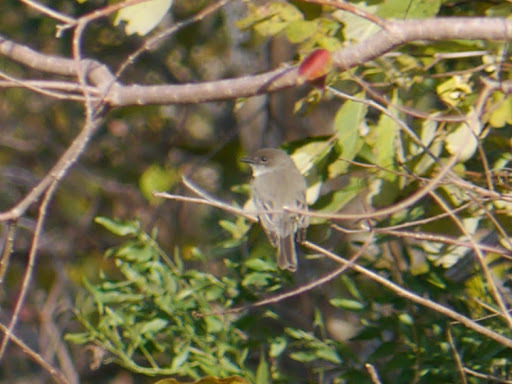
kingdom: Animalia
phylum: Chordata
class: Aves
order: Passeriformes
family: Tyrannidae
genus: Sayornis
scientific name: Sayornis phoebe
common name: Eastern phoebe
